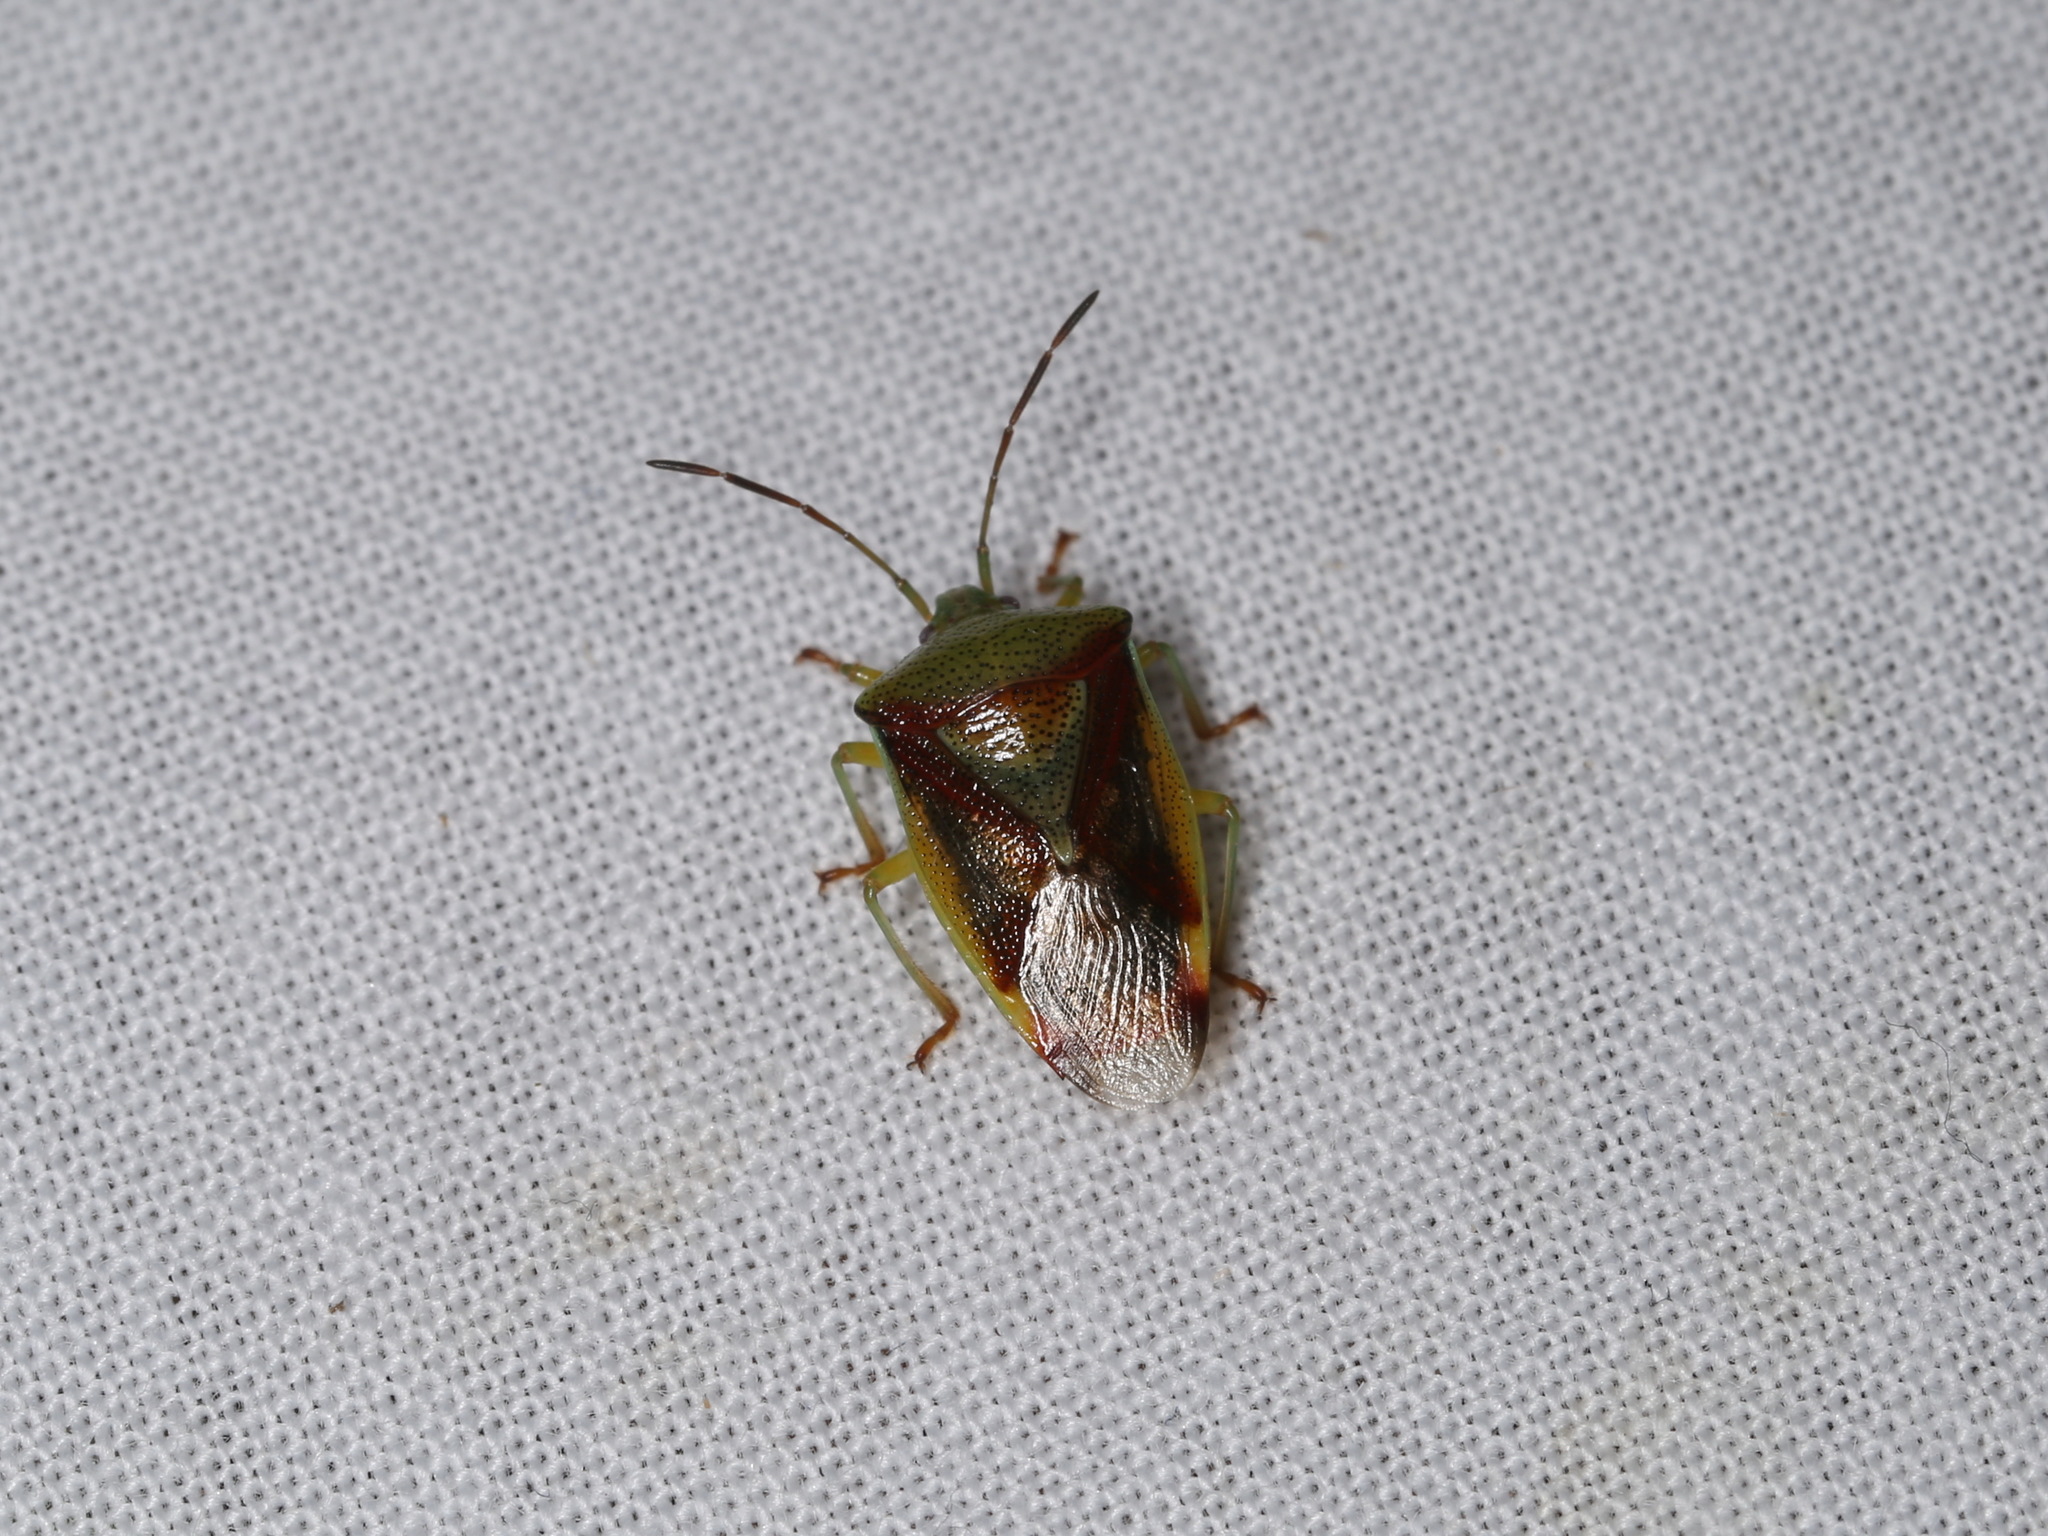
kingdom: Animalia
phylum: Arthropoda
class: Insecta
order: Hemiptera
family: Acanthosomatidae
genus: Elasmostethus
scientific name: Elasmostethus interstinctus
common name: Birch shieldbug
